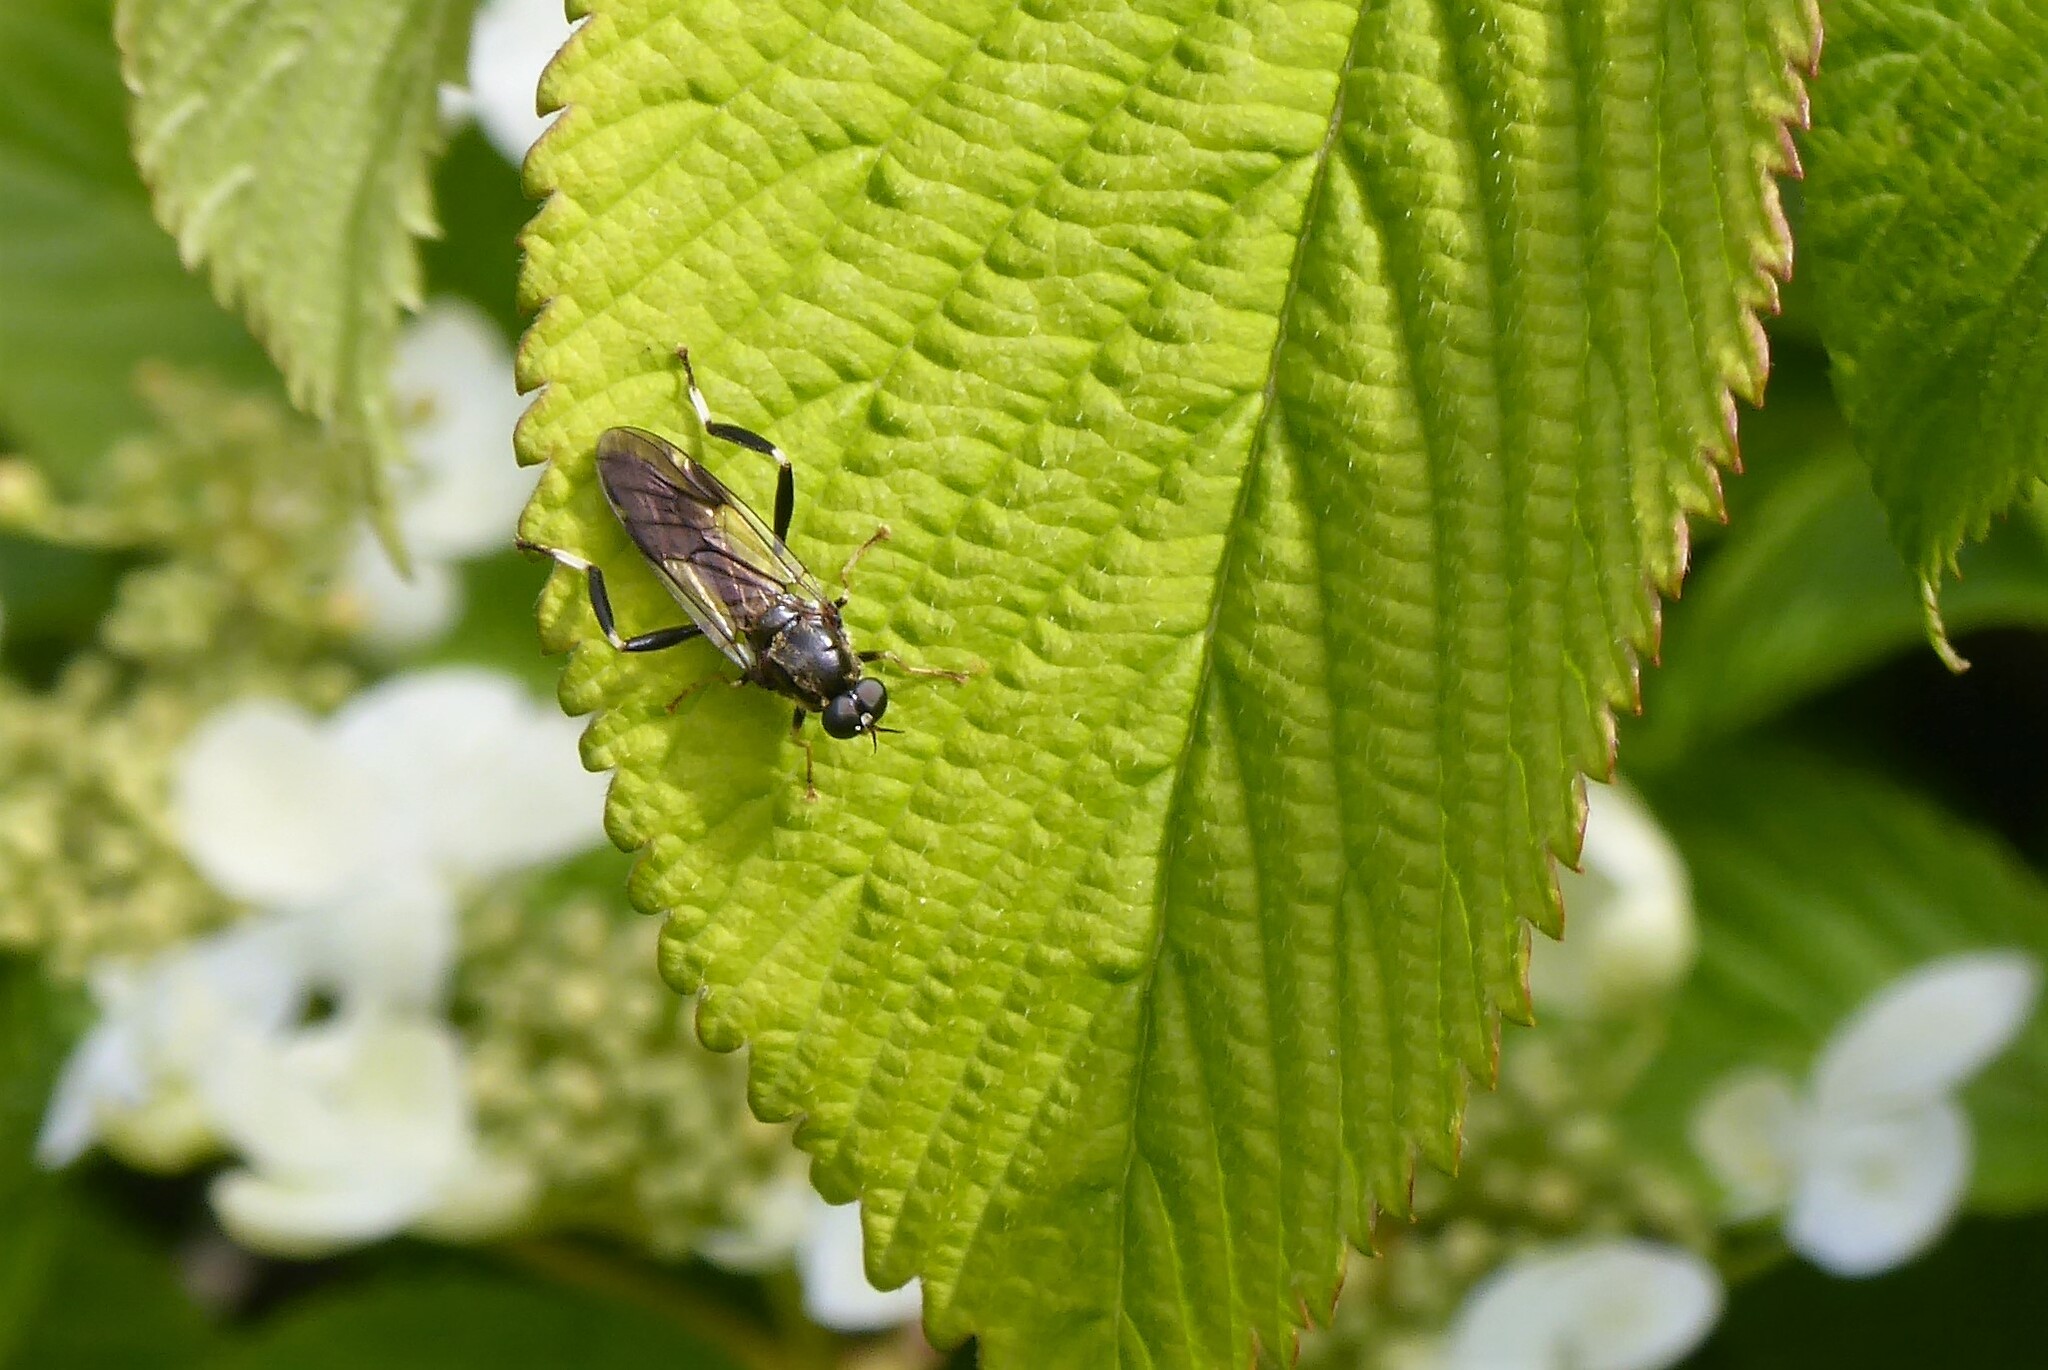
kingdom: Animalia
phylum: Arthropoda
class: Insecta
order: Diptera
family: Stratiomyidae
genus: Exaireta
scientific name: Exaireta spinigera
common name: Blue soldier fly
